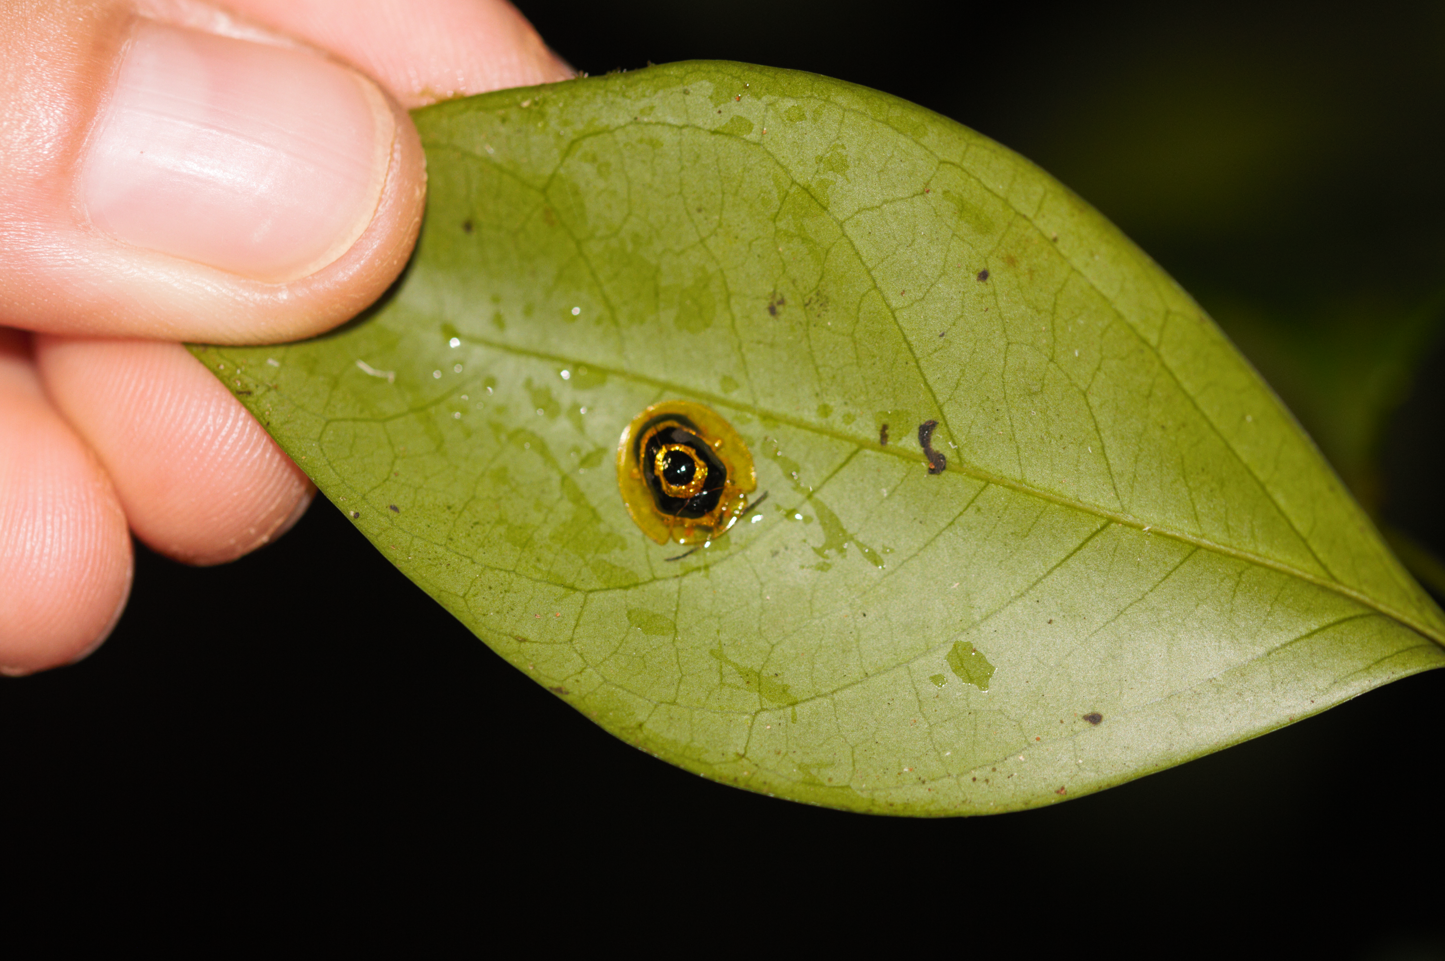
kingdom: Animalia
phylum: Arthropoda
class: Insecta
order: Coleoptera
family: Chrysomelidae
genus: Ischnocodia
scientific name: Ischnocodia annulus
